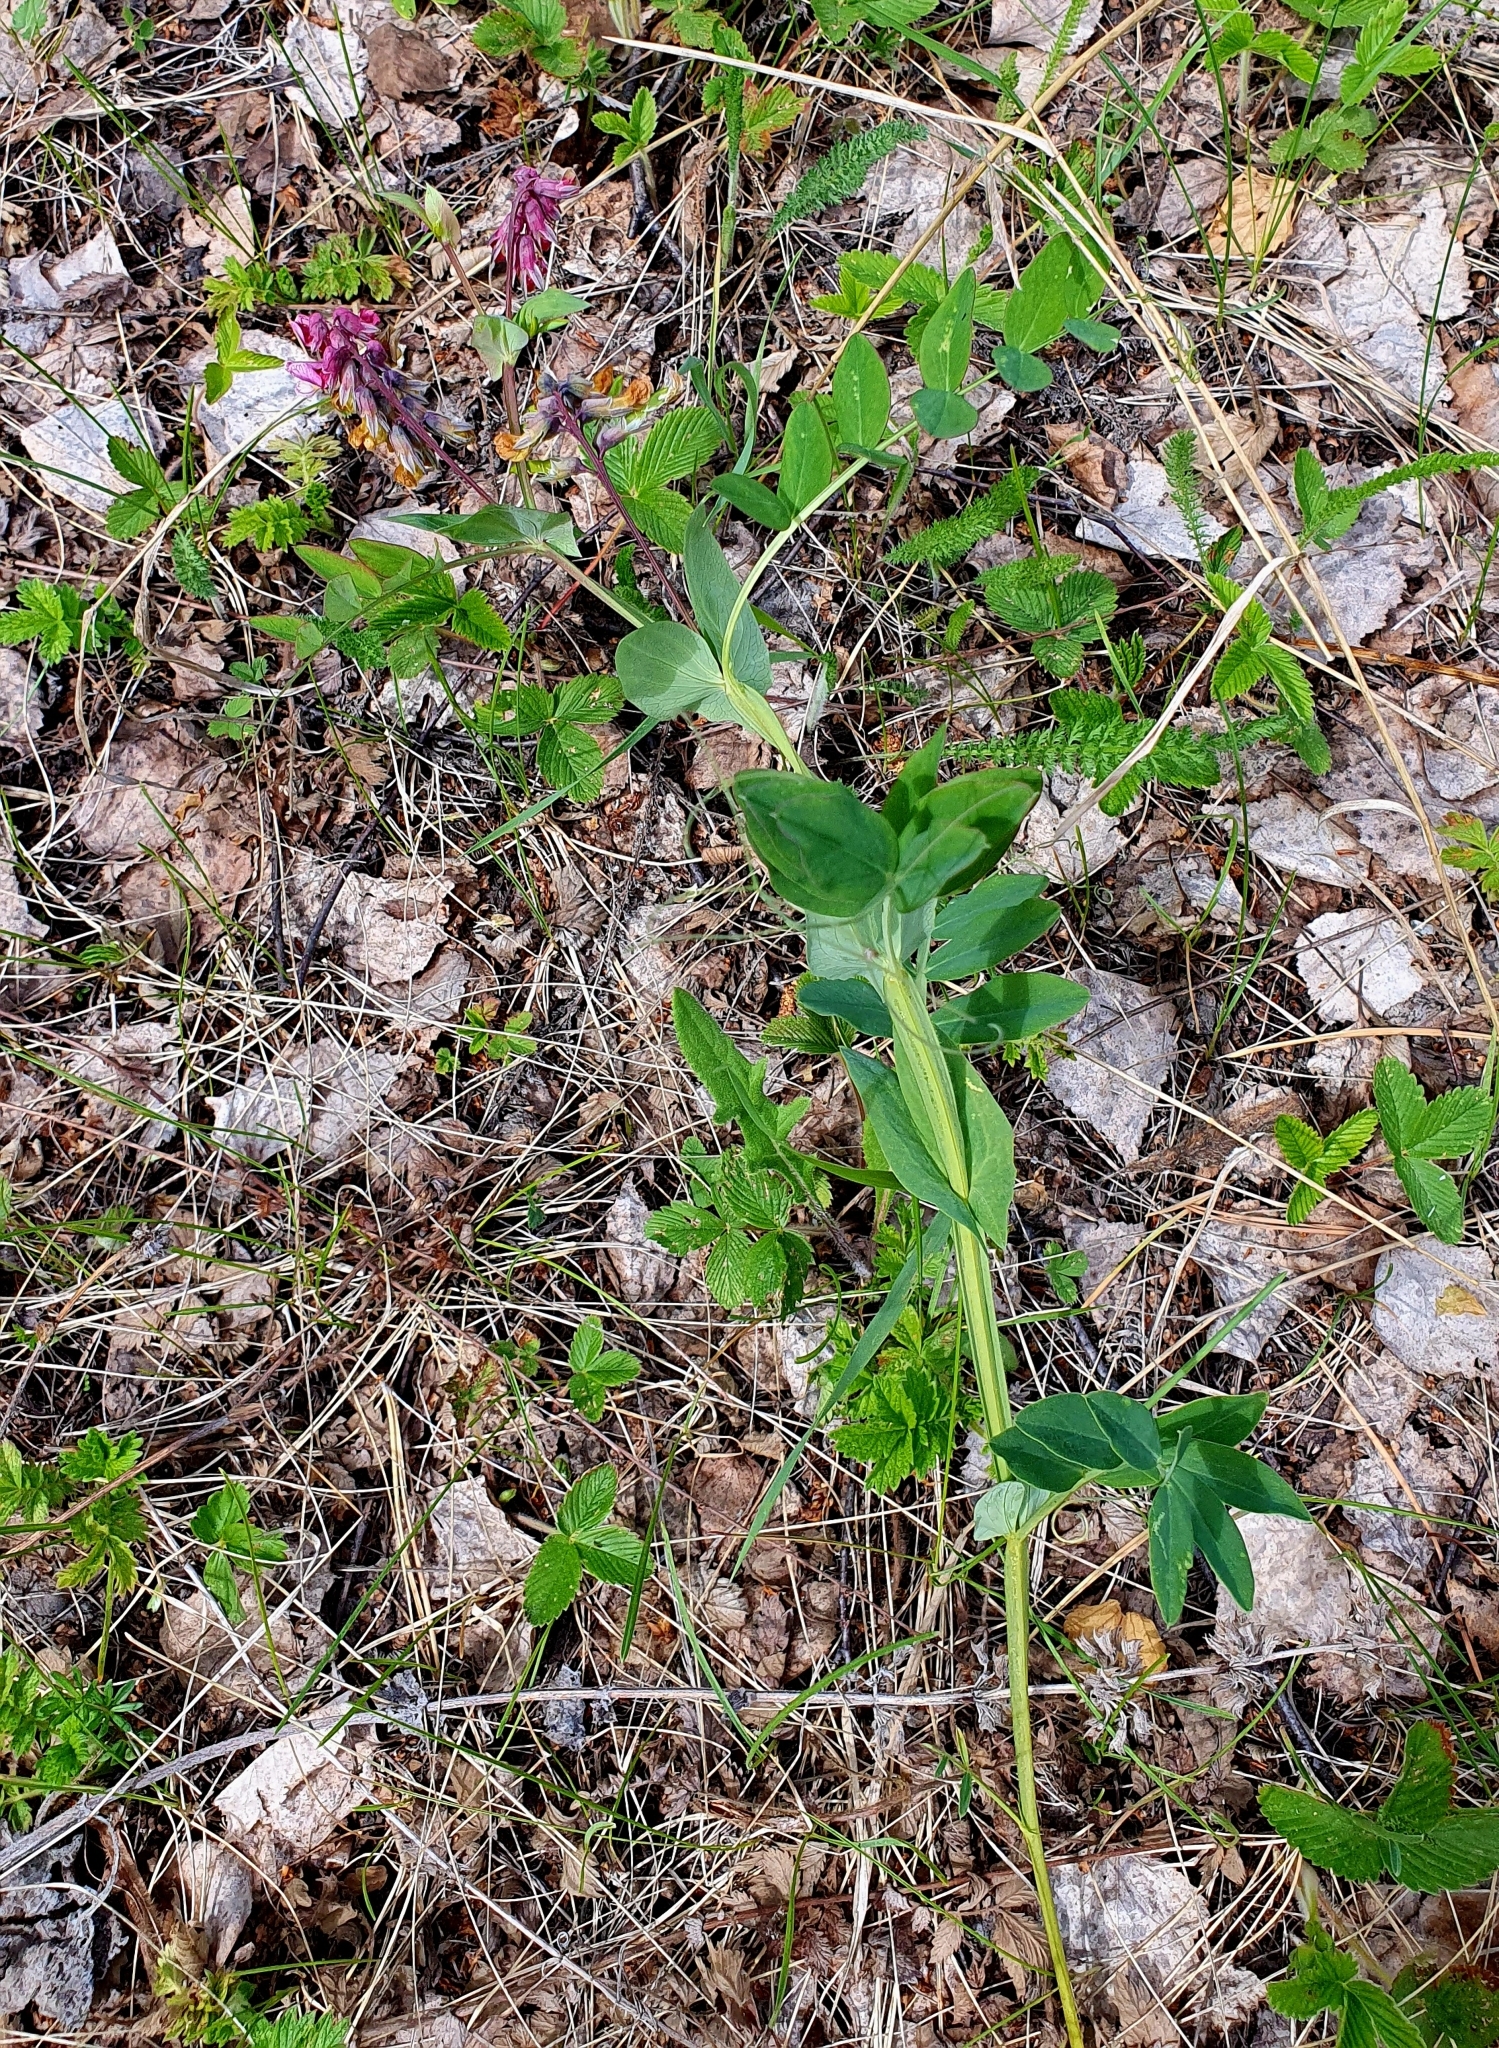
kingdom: Plantae
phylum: Tracheophyta
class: Magnoliopsida
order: Fabales
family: Fabaceae
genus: Lathyrus
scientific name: Lathyrus pisiformis
